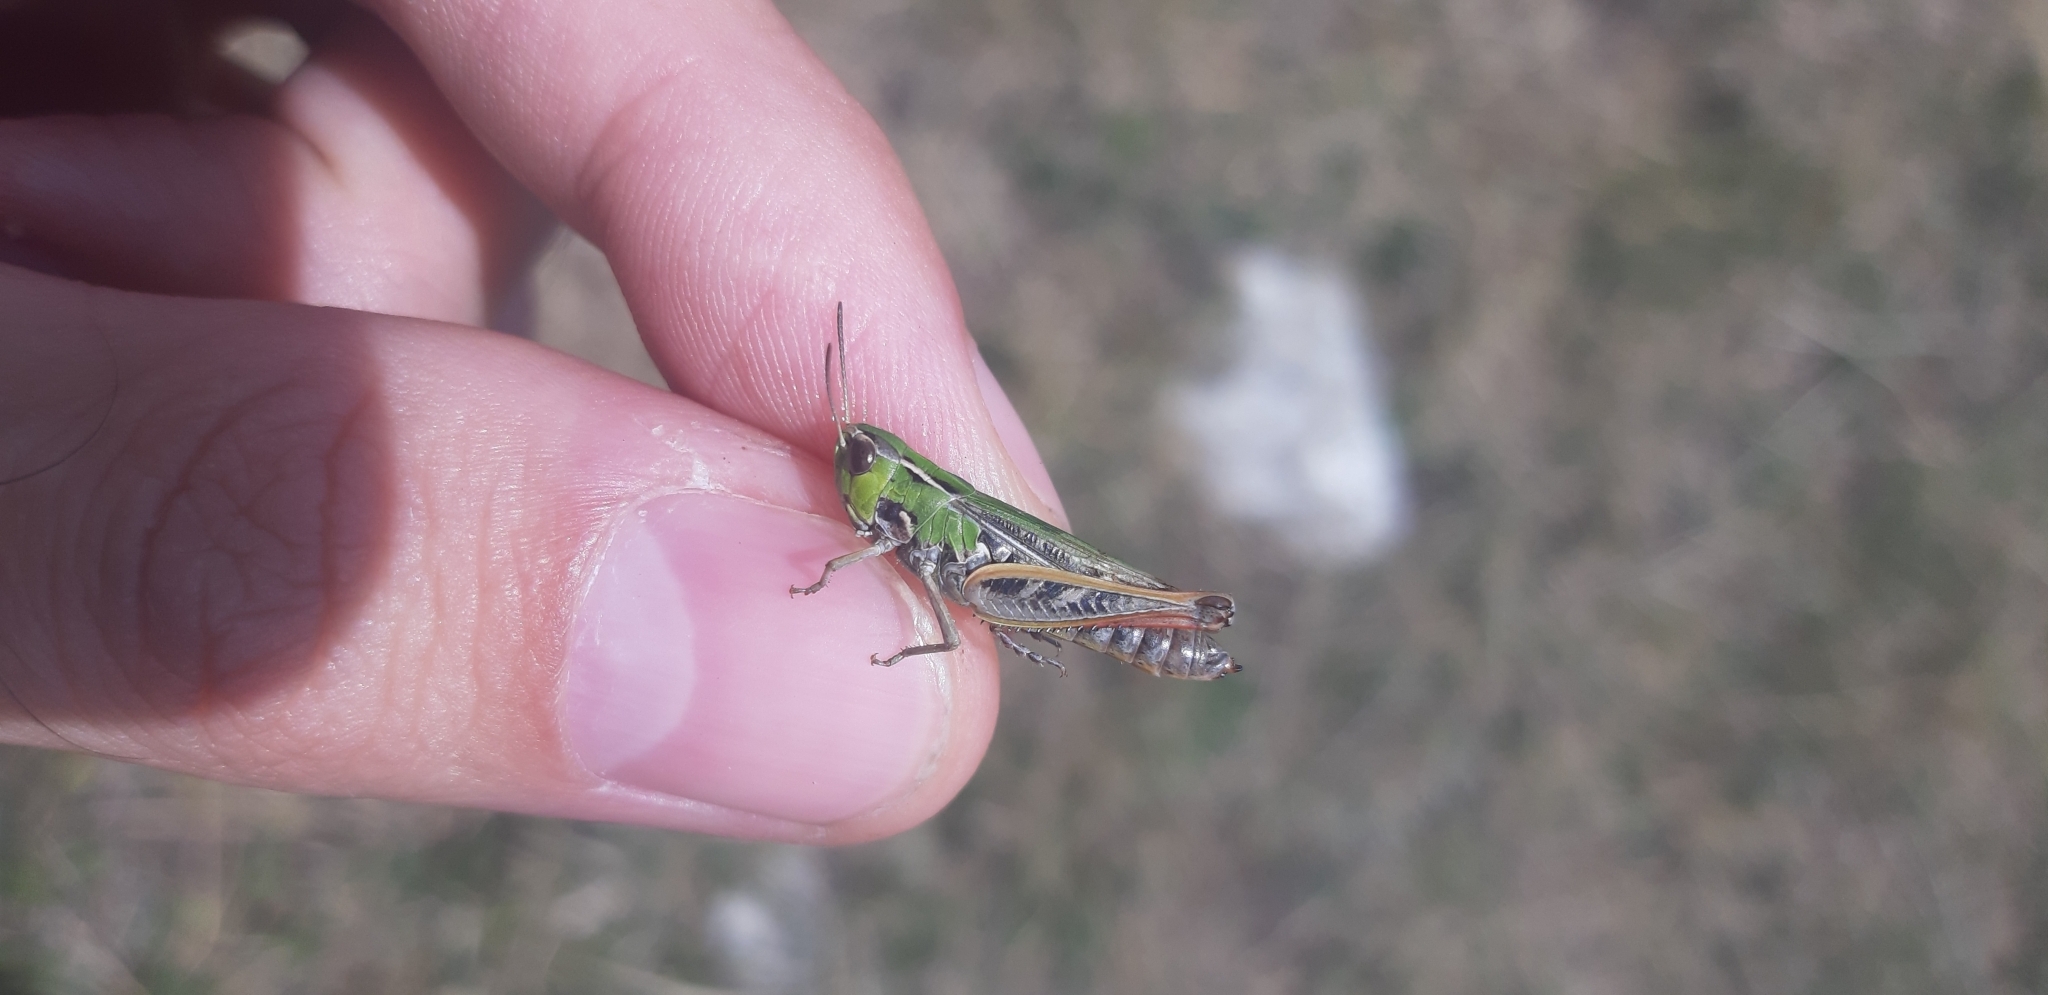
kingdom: Animalia
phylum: Arthropoda
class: Insecta
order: Orthoptera
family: Acrididae
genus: Stenobothrus
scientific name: Stenobothrus stigmaticus
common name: Lesser mottled grasshopper
